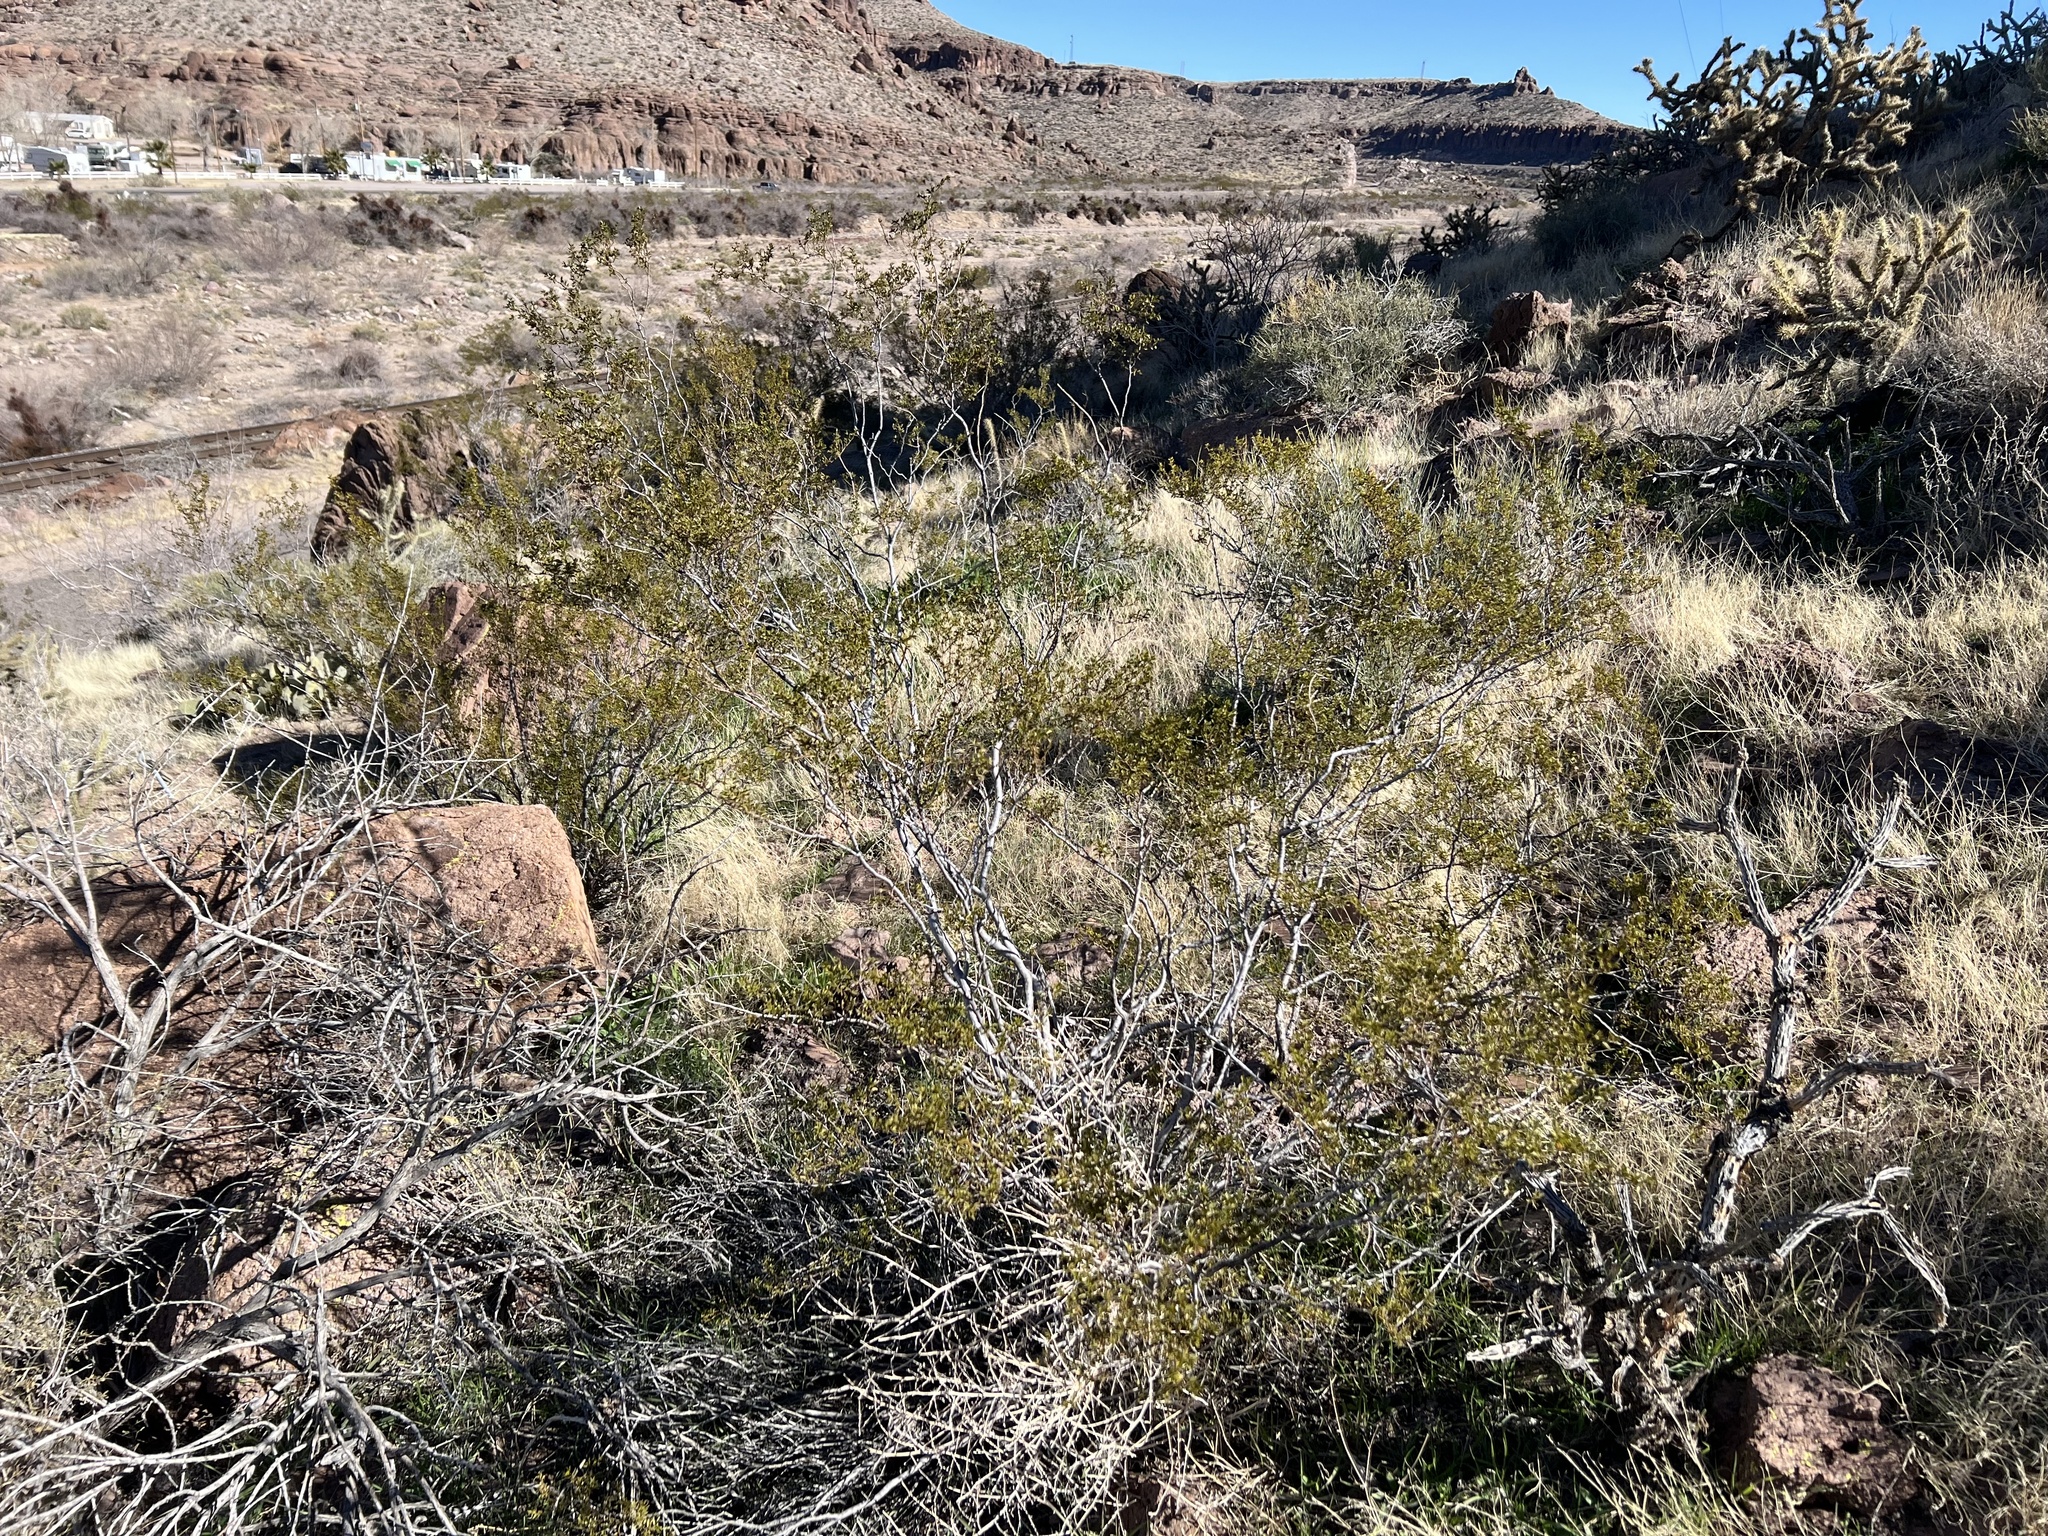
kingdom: Plantae
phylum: Tracheophyta
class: Magnoliopsida
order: Zygophyllales
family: Zygophyllaceae
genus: Larrea
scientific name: Larrea tridentata
